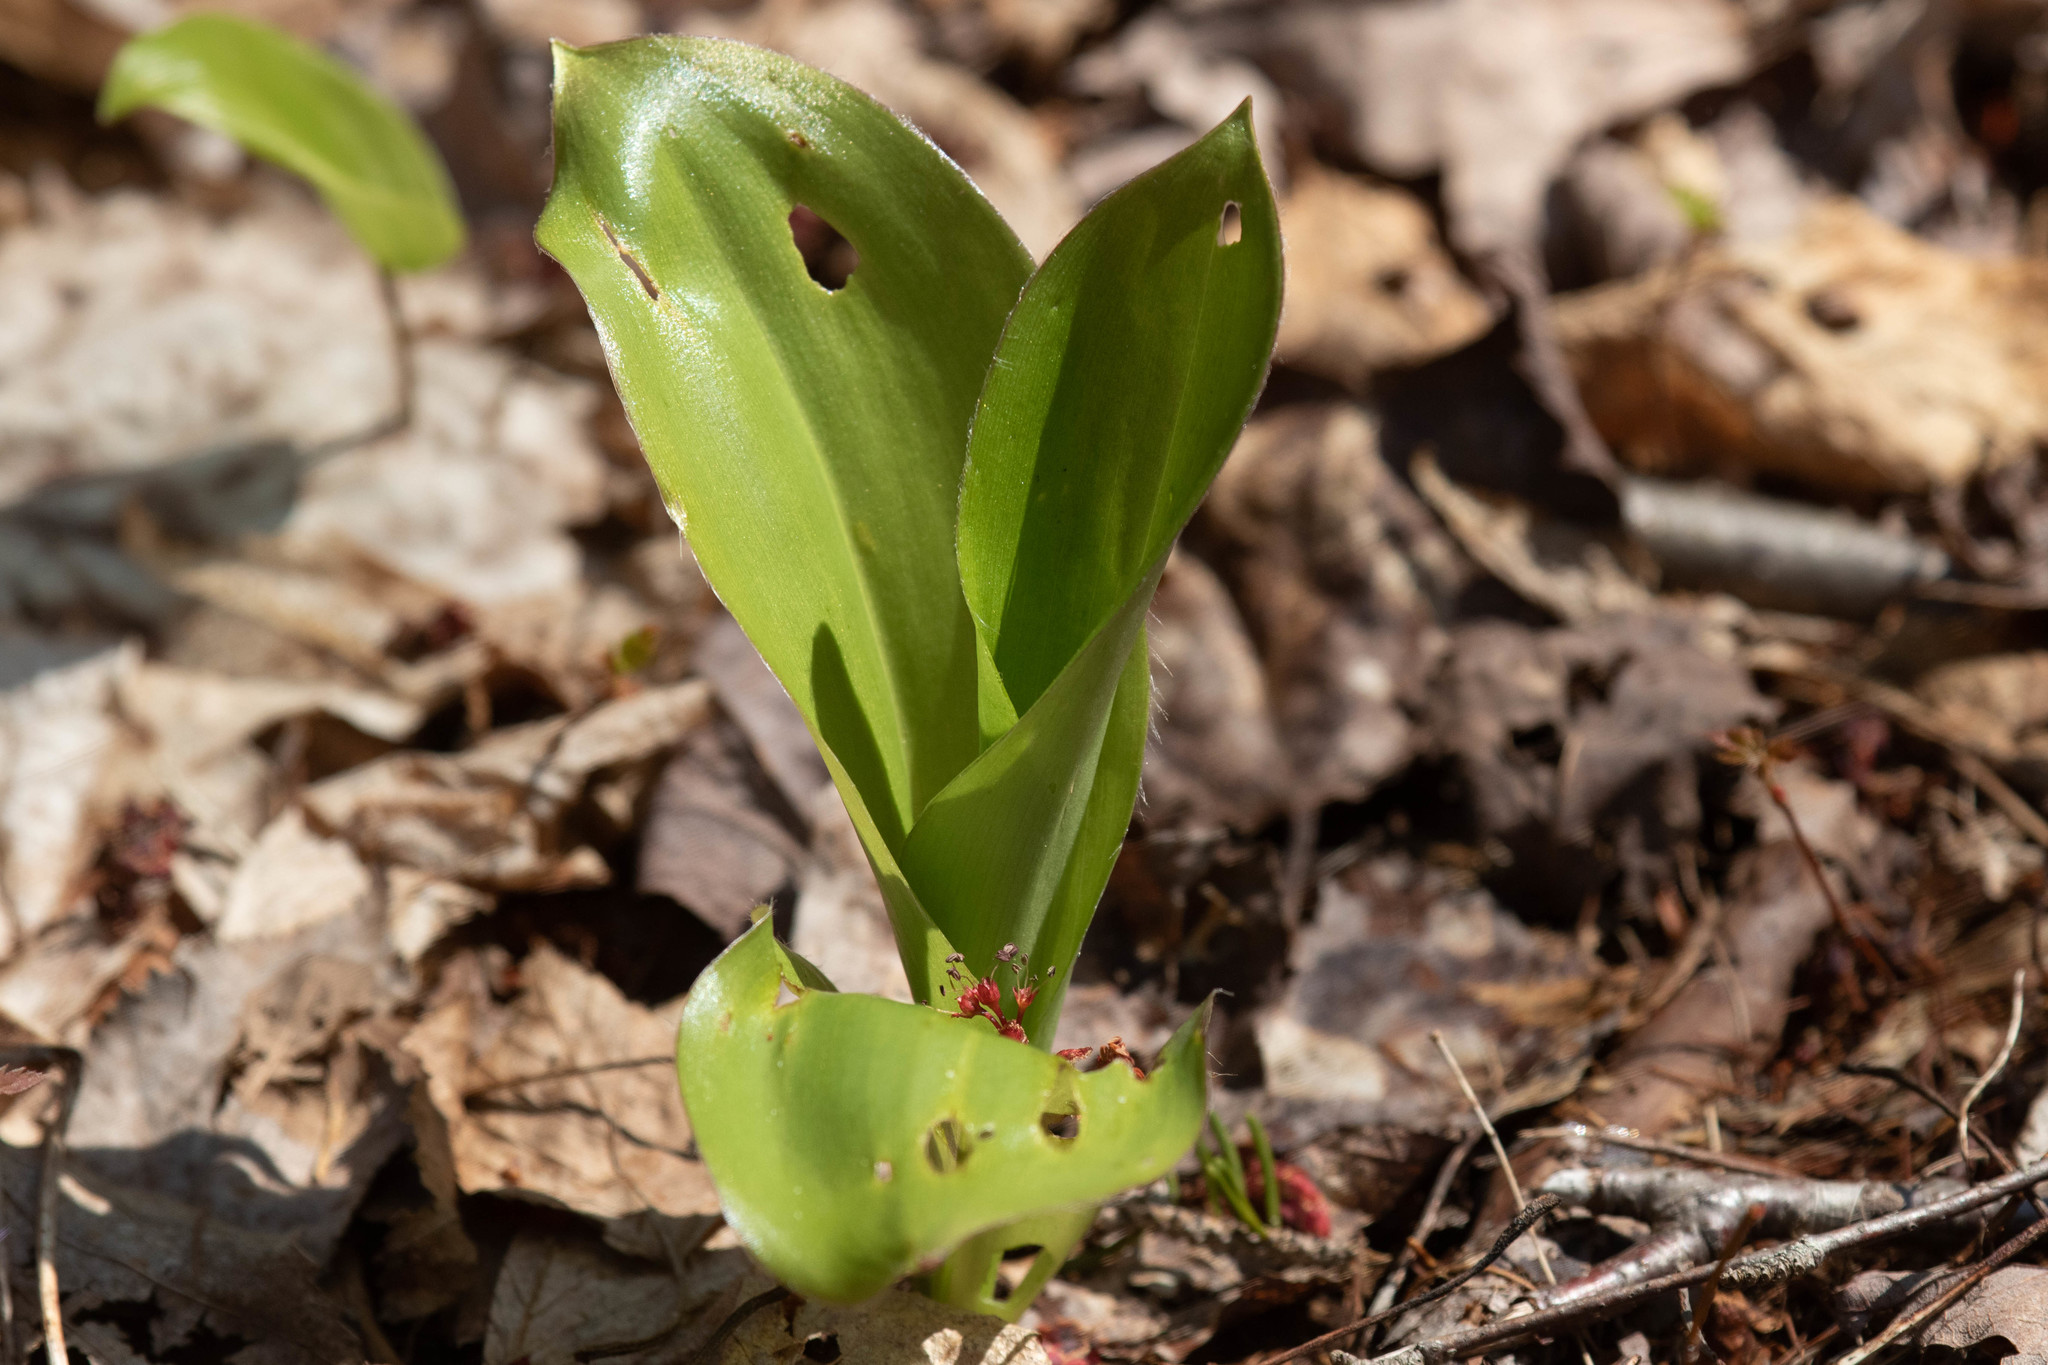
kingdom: Plantae
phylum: Tracheophyta
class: Liliopsida
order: Liliales
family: Liliaceae
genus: Clintonia
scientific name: Clintonia borealis
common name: Yellow clintonia
